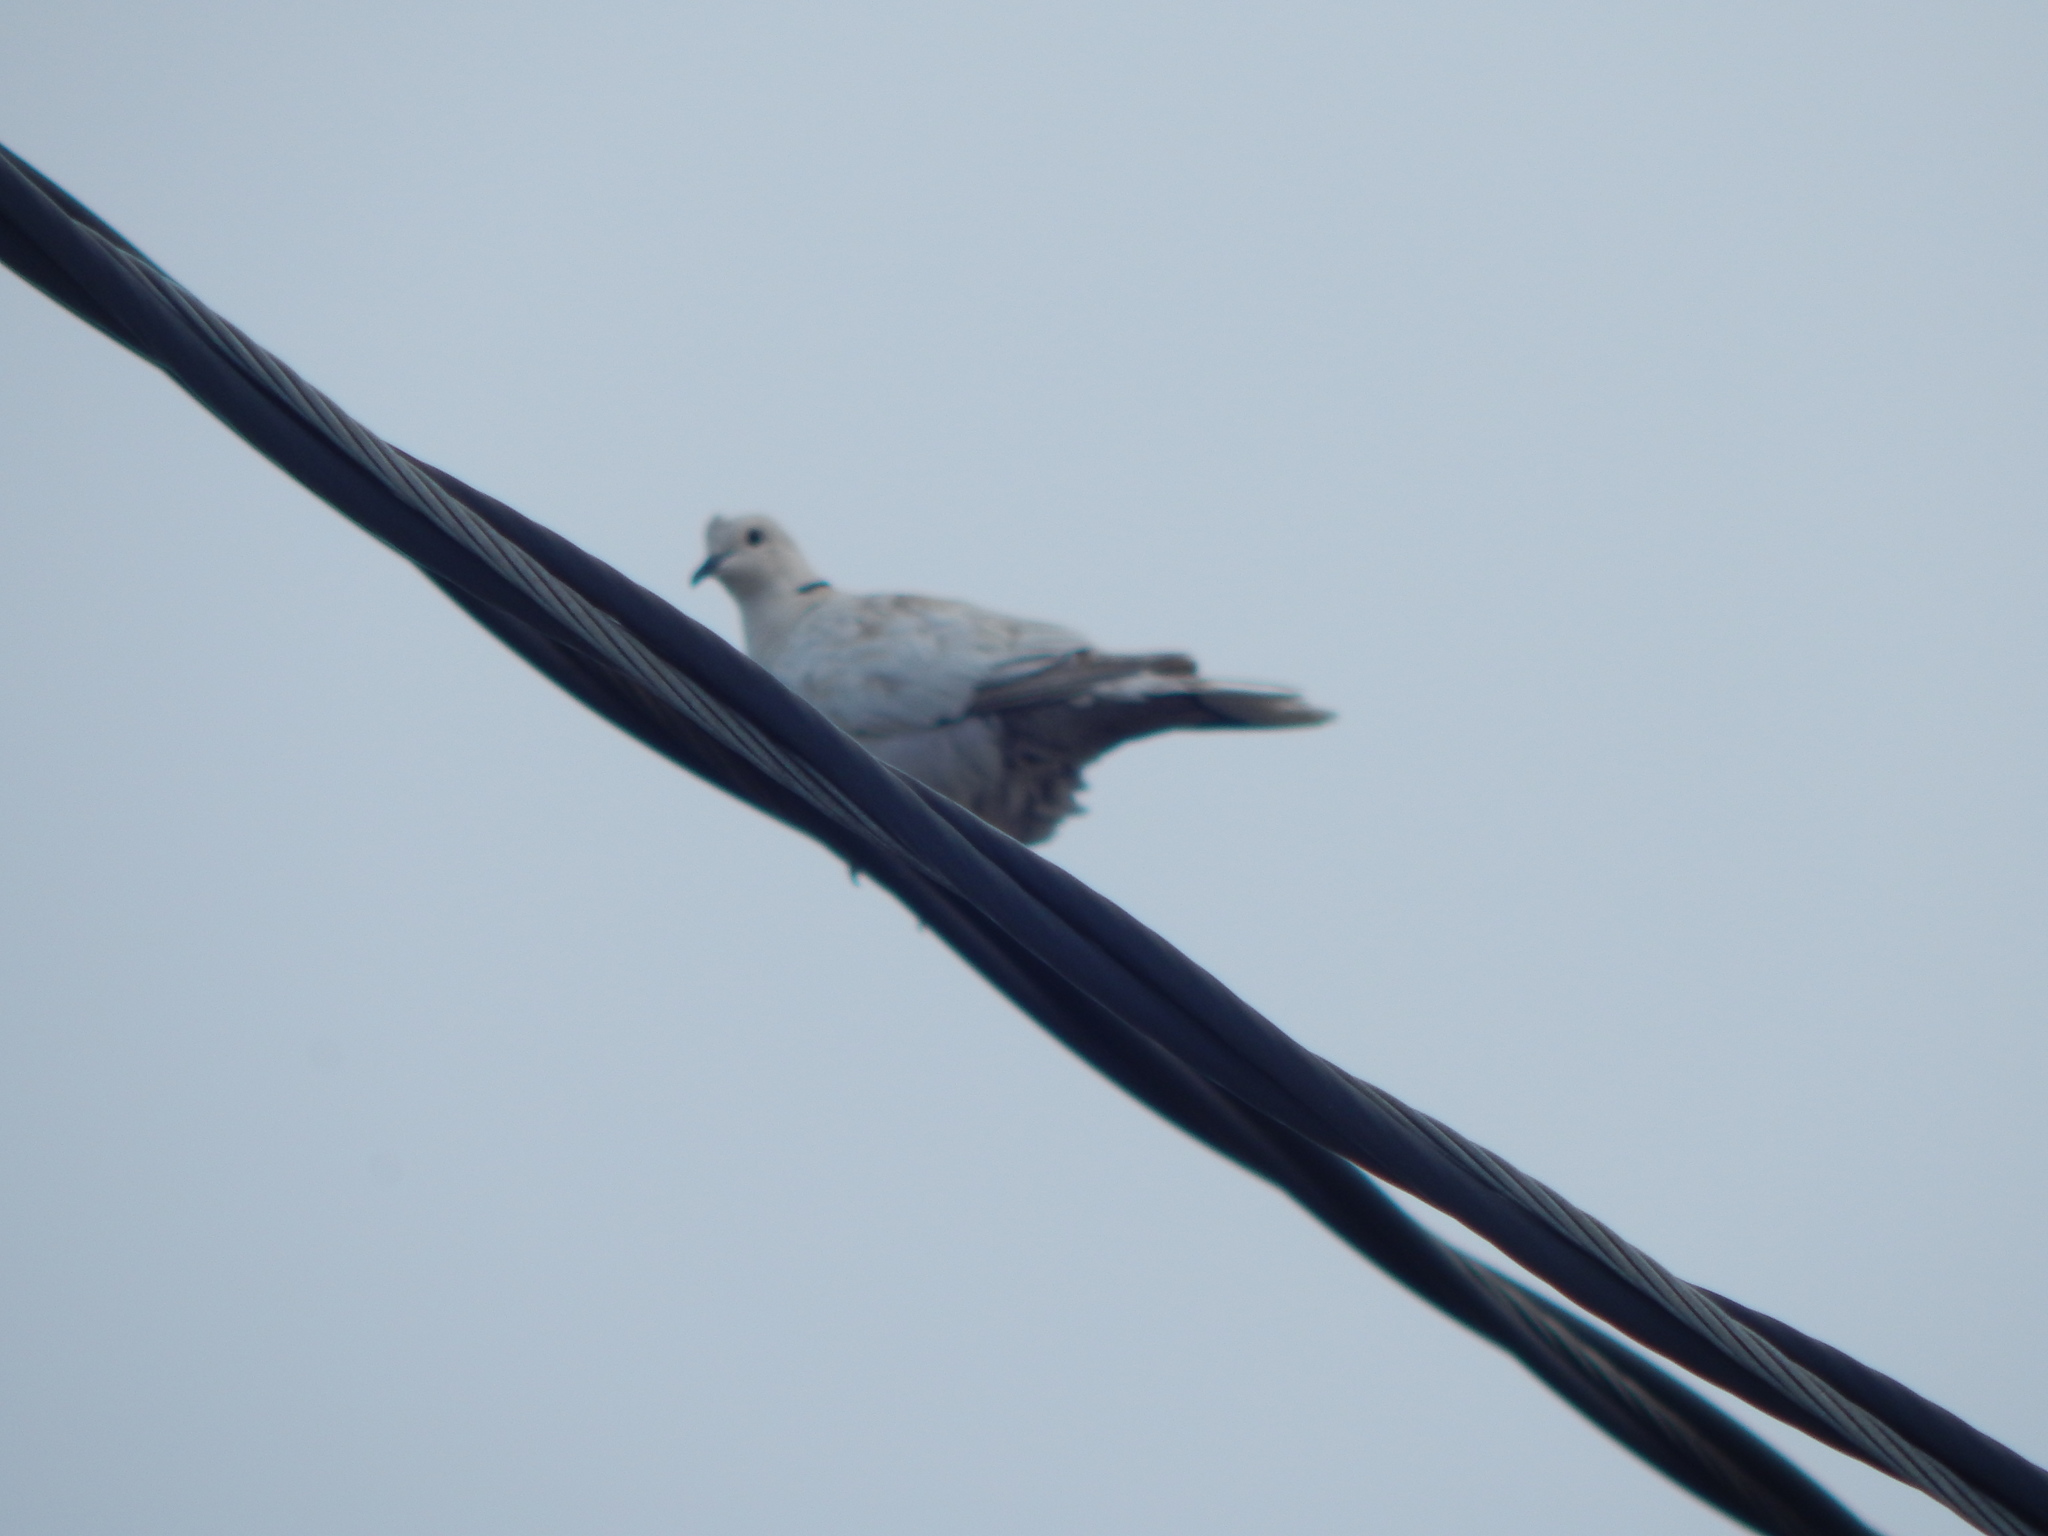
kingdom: Animalia
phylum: Chordata
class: Aves
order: Columbiformes
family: Columbidae
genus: Streptopelia
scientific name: Streptopelia decaocto
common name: Eurasian collared dove
